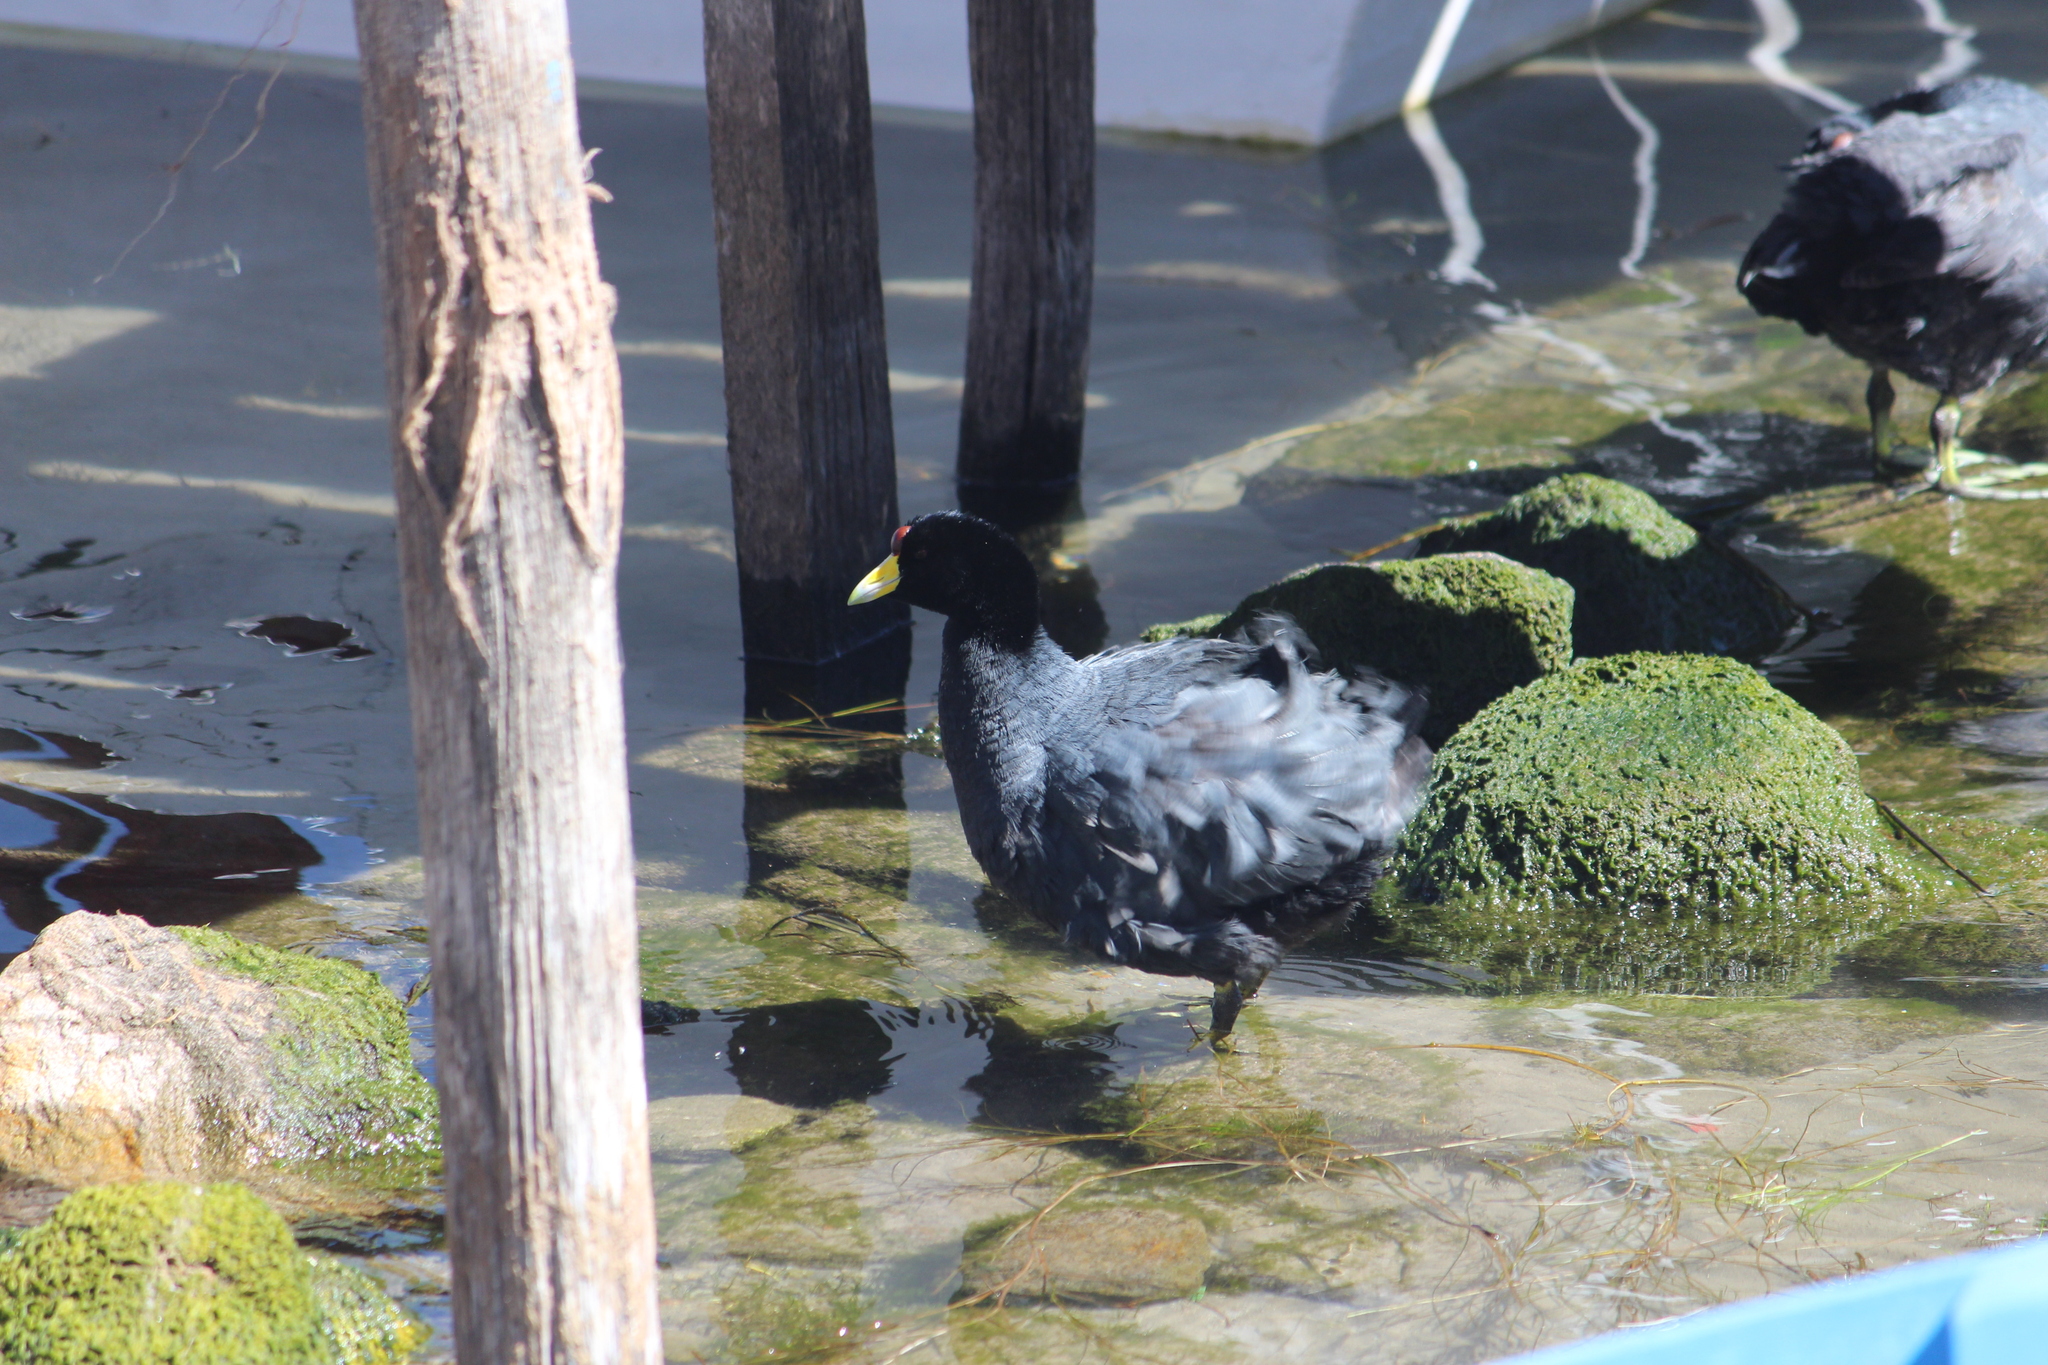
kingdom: Animalia
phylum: Chordata
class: Aves
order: Gruiformes
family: Rallidae
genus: Fulica
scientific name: Fulica ardesiaca
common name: Andean coot
